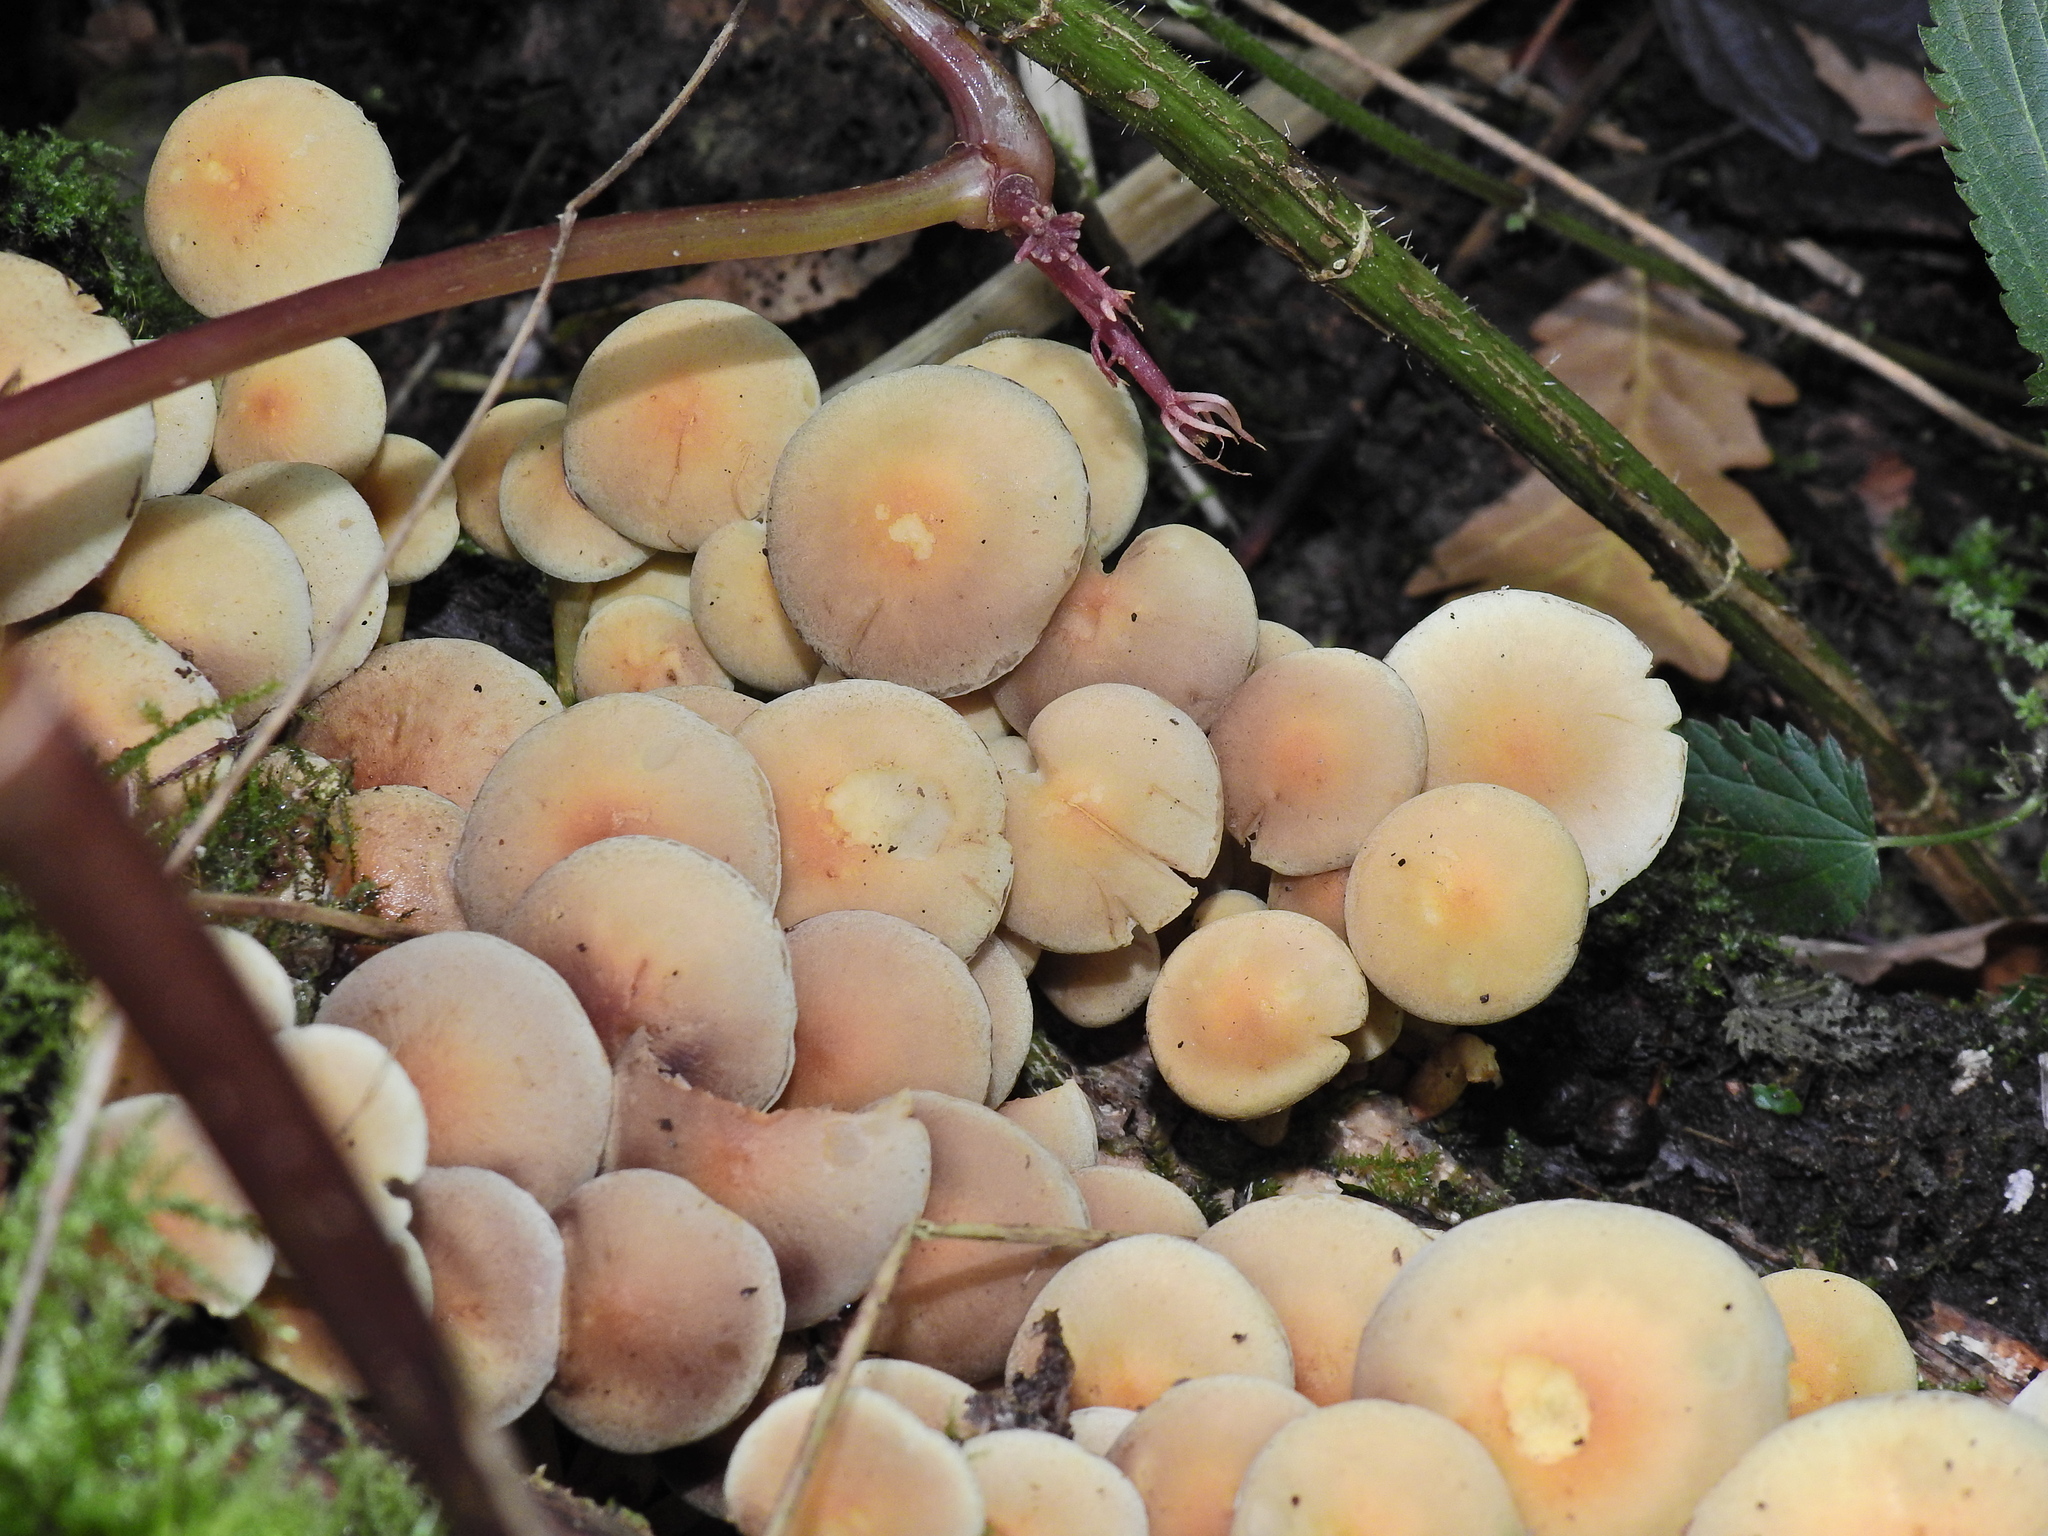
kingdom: Fungi
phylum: Basidiomycota
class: Agaricomycetes
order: Agaricales
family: Strophariaceae
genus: Hypholoma
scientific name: Hypholoma fasciculare
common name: Sulphur tuft
